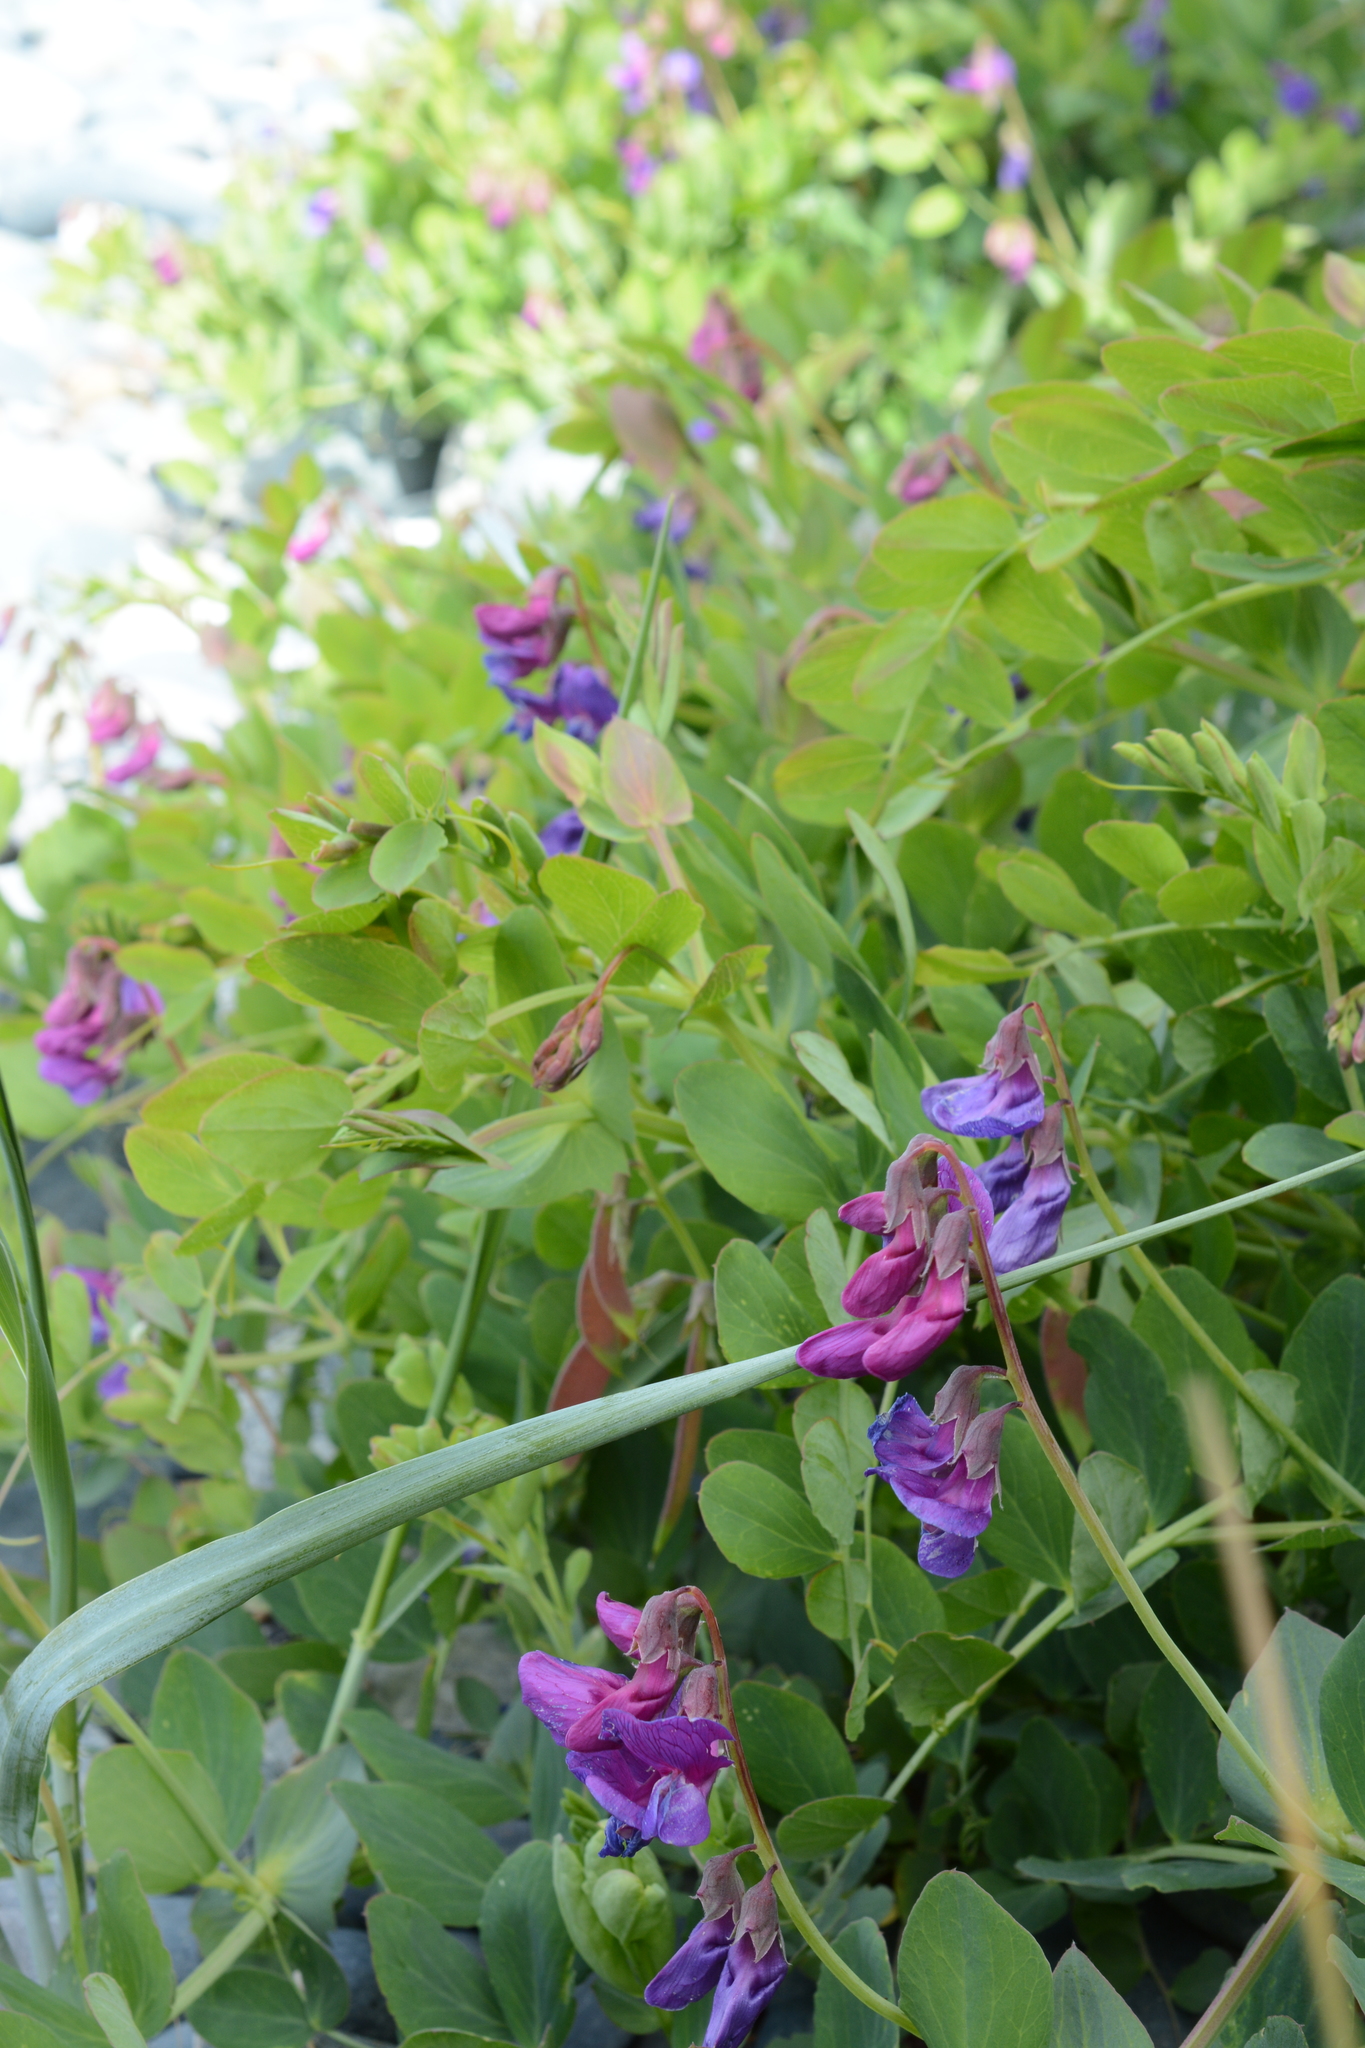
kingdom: Plantae
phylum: Tracheophyta
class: Magnoliopsida
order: Fabales
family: Fabaceae
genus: Lathyrus
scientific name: Lathyrus japonicus
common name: Sea pea
